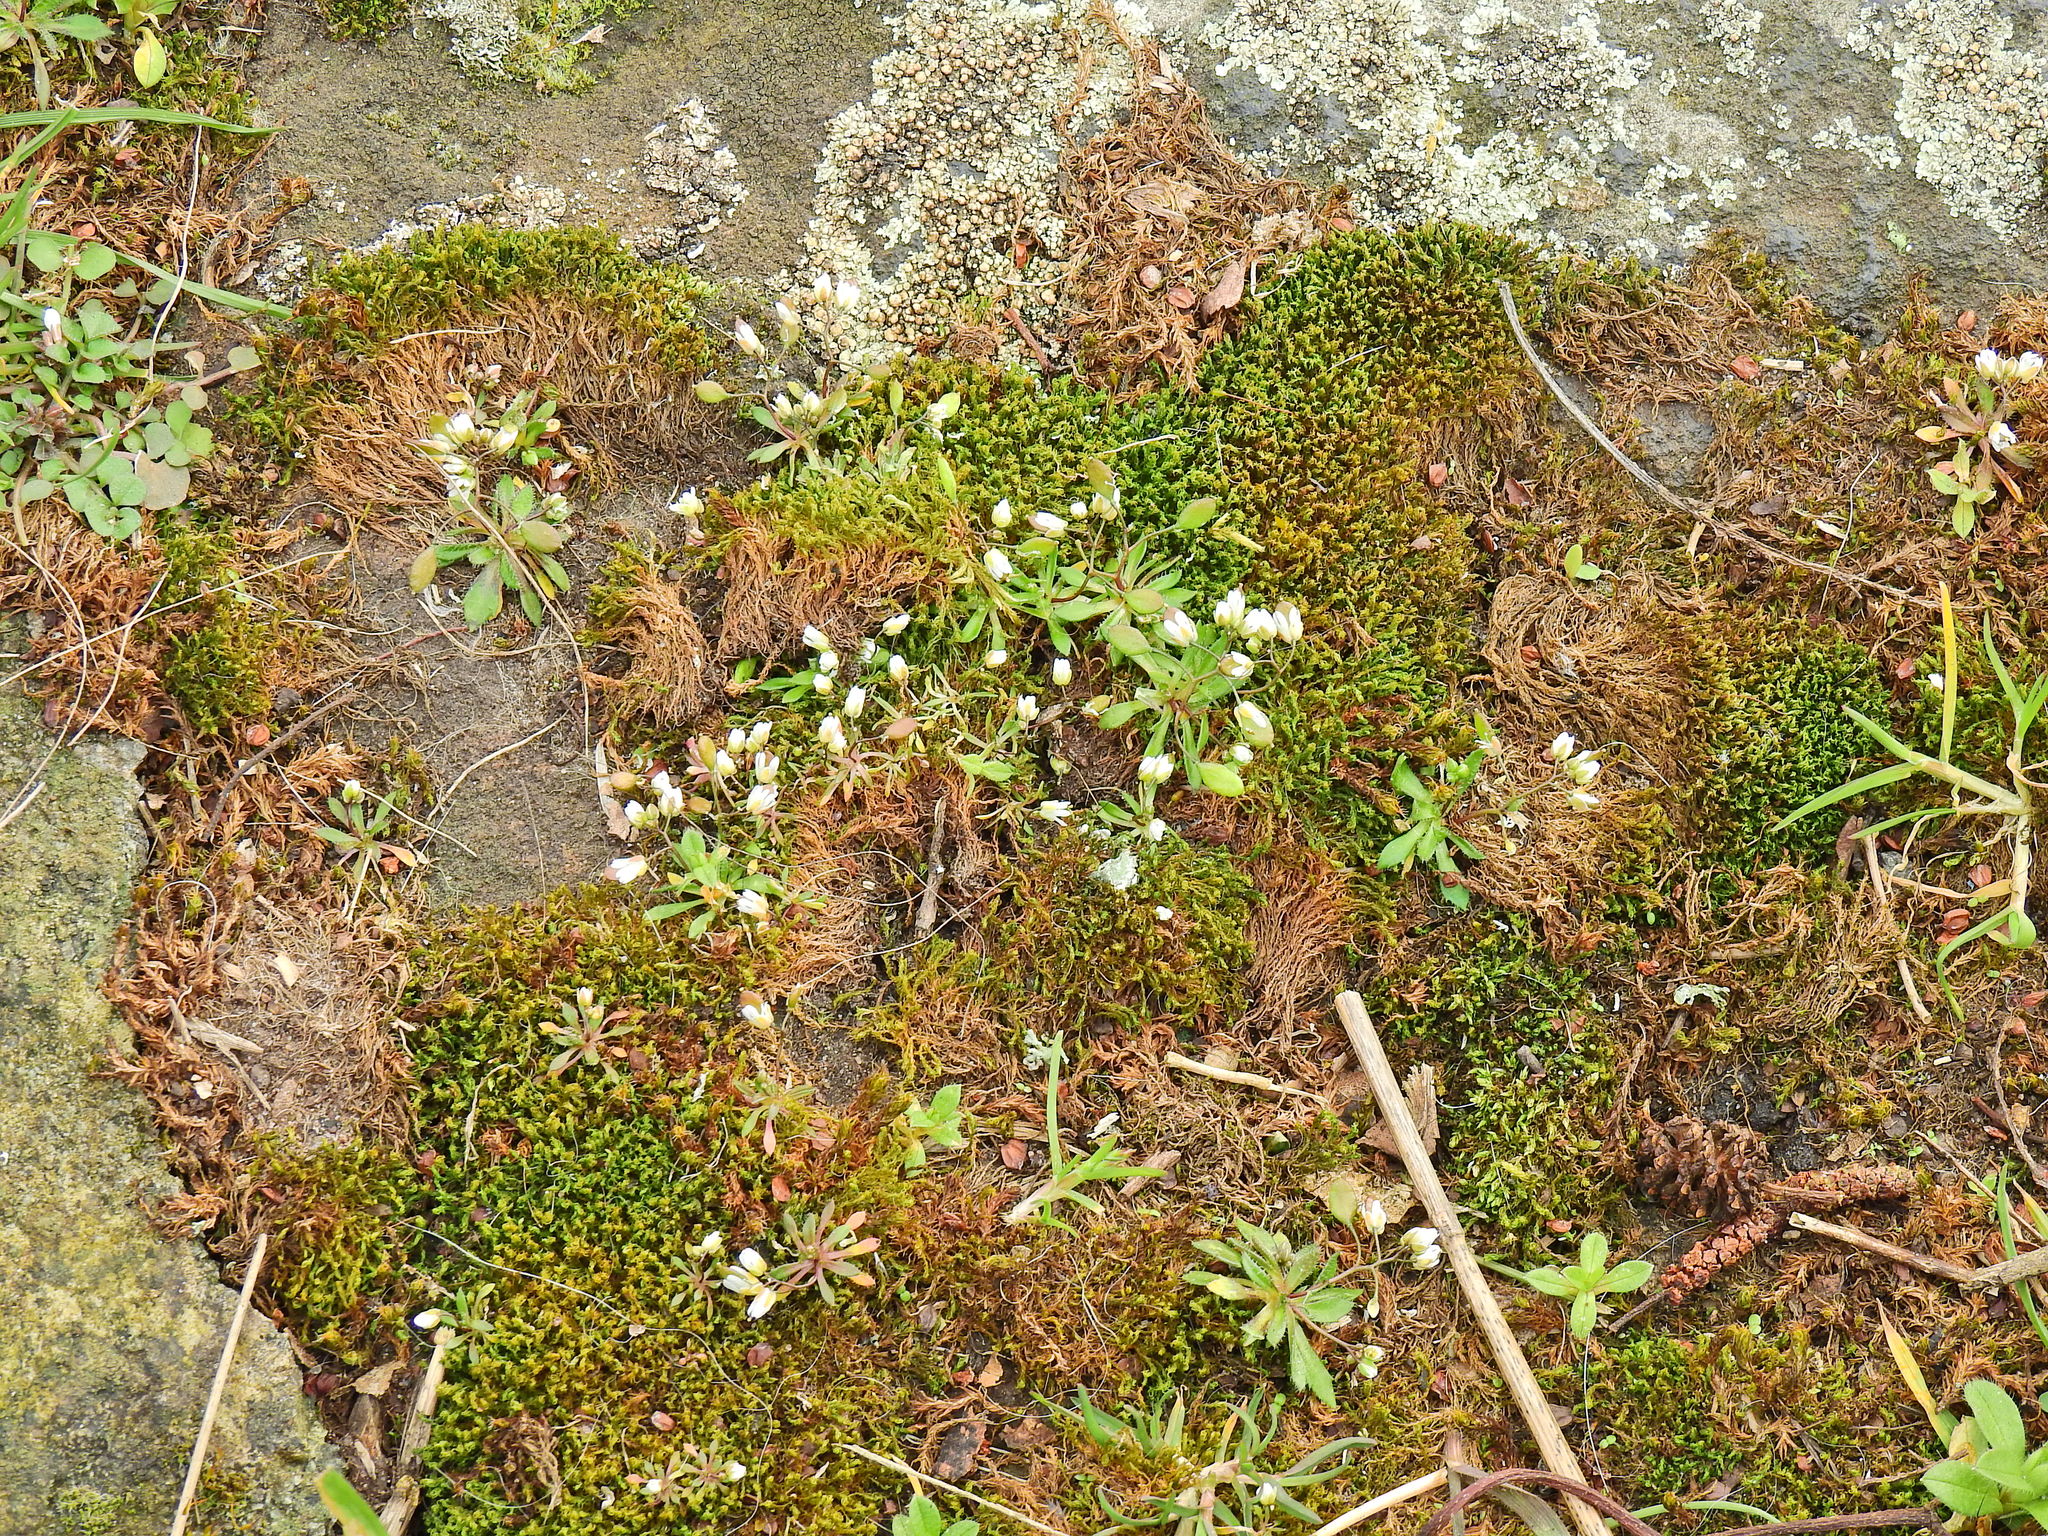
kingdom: Plantae
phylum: Tracheophyta
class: Magnoliopsida
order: Brassicales
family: Brassicaceae
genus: Draba
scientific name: Draba verna
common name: Spring draba
